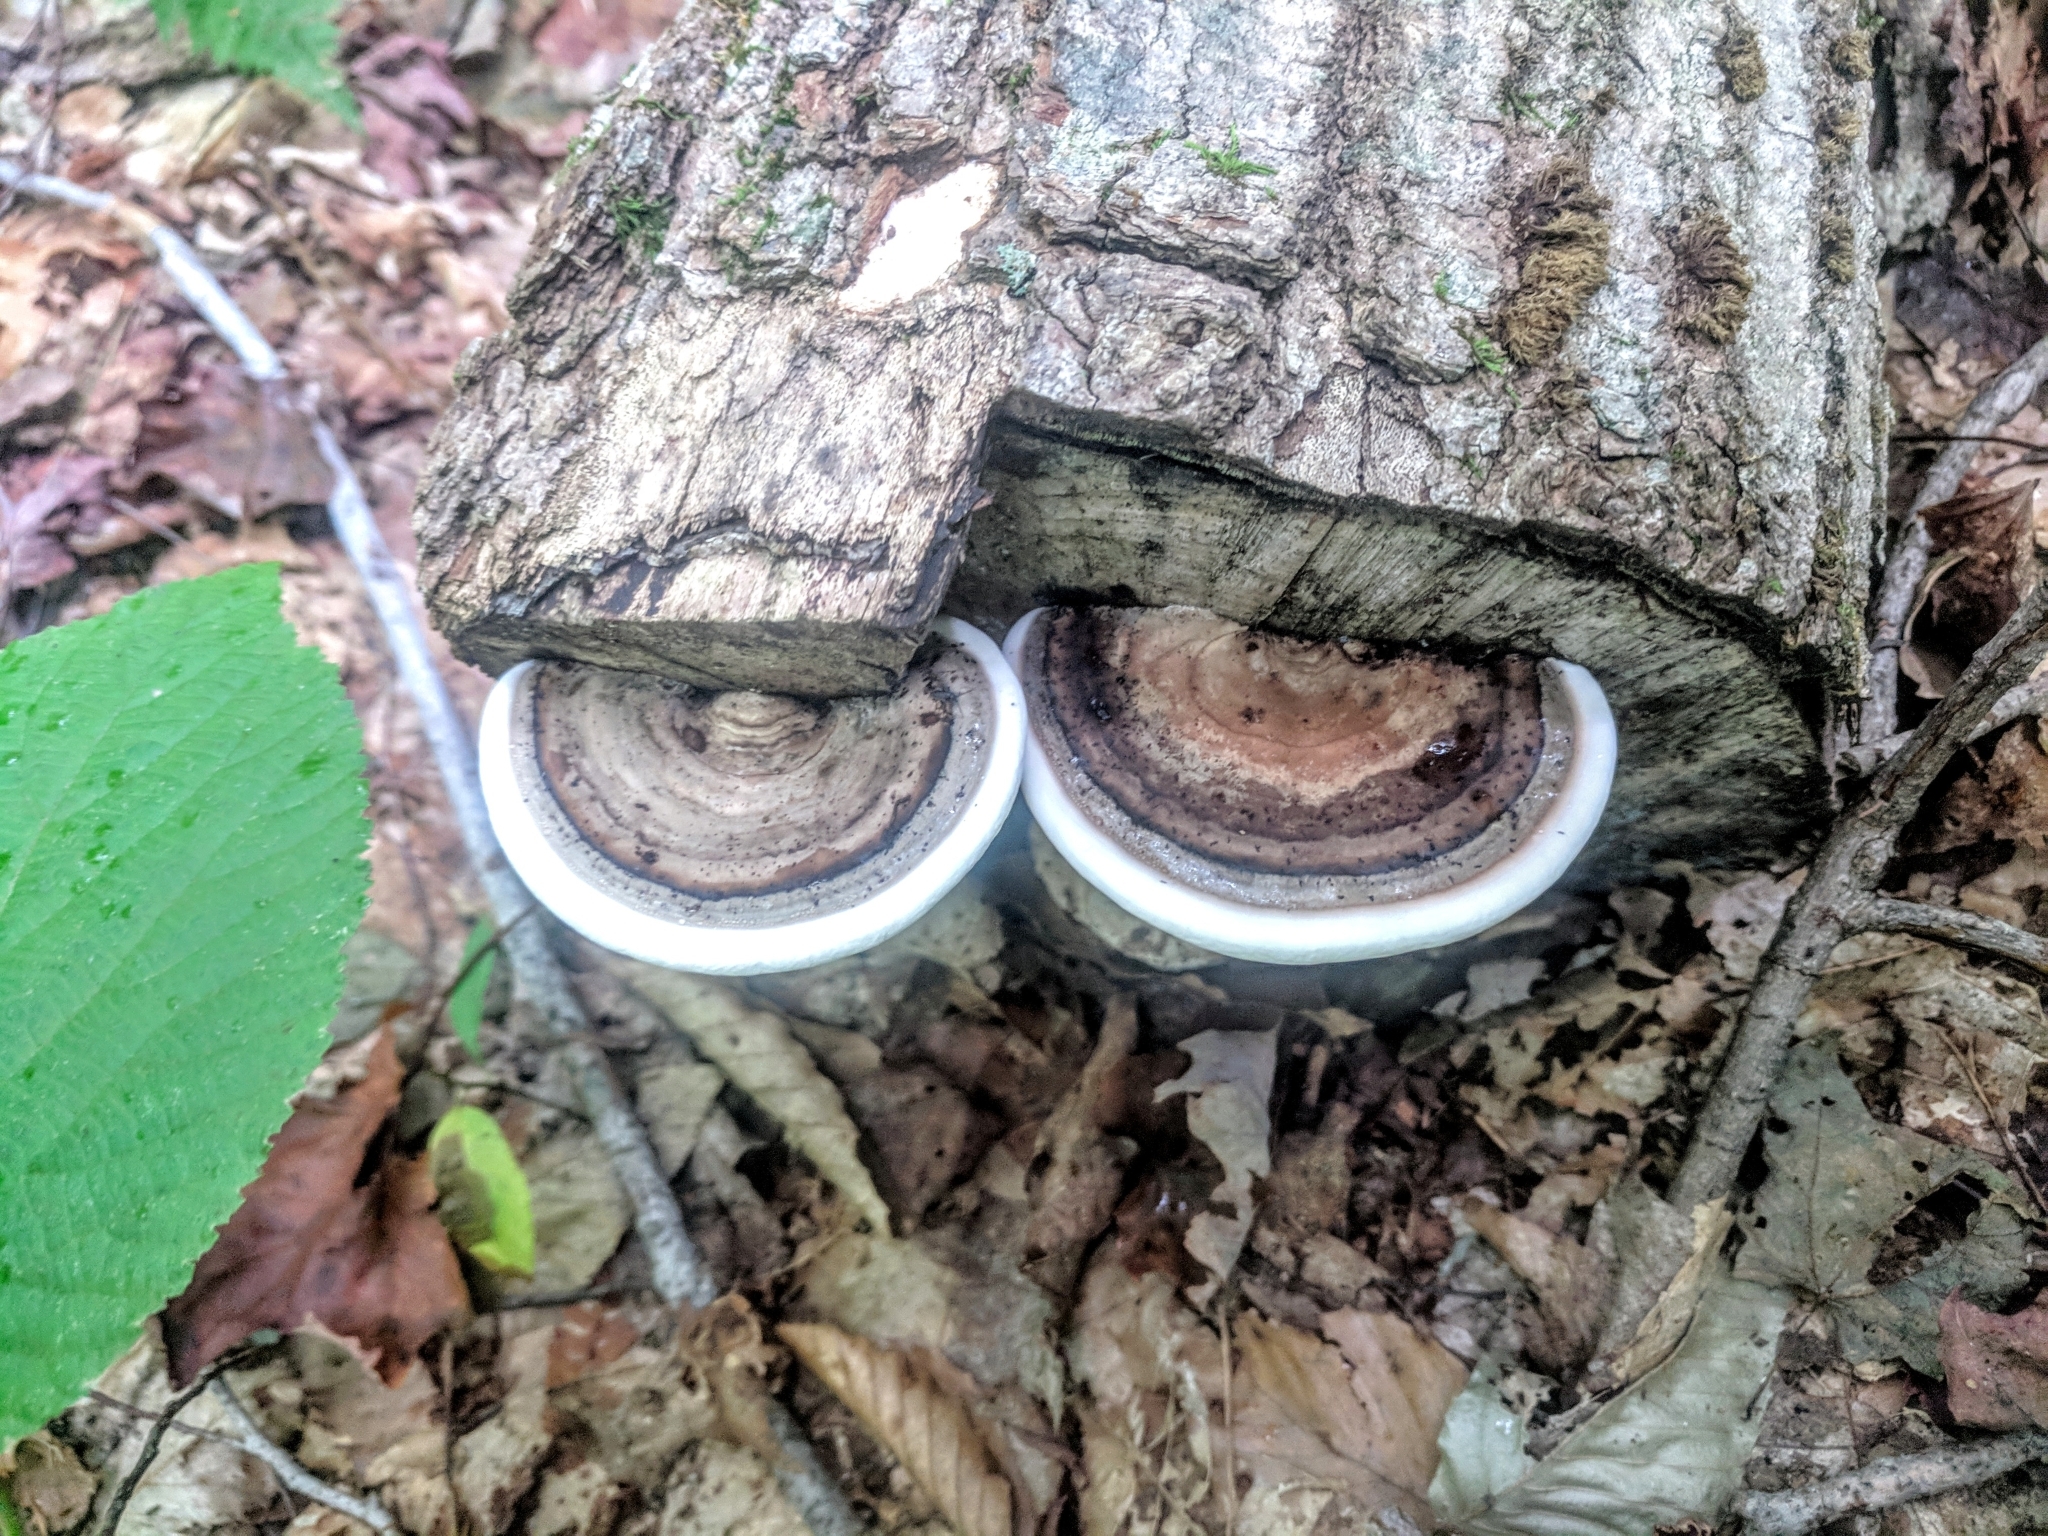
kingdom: Fungi
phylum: Basidiomycota
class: Agaricomycetes
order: Polyporales
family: Polyporaceae
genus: Ganoderma
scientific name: Ganoderma applanatum
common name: Artist's bracket
